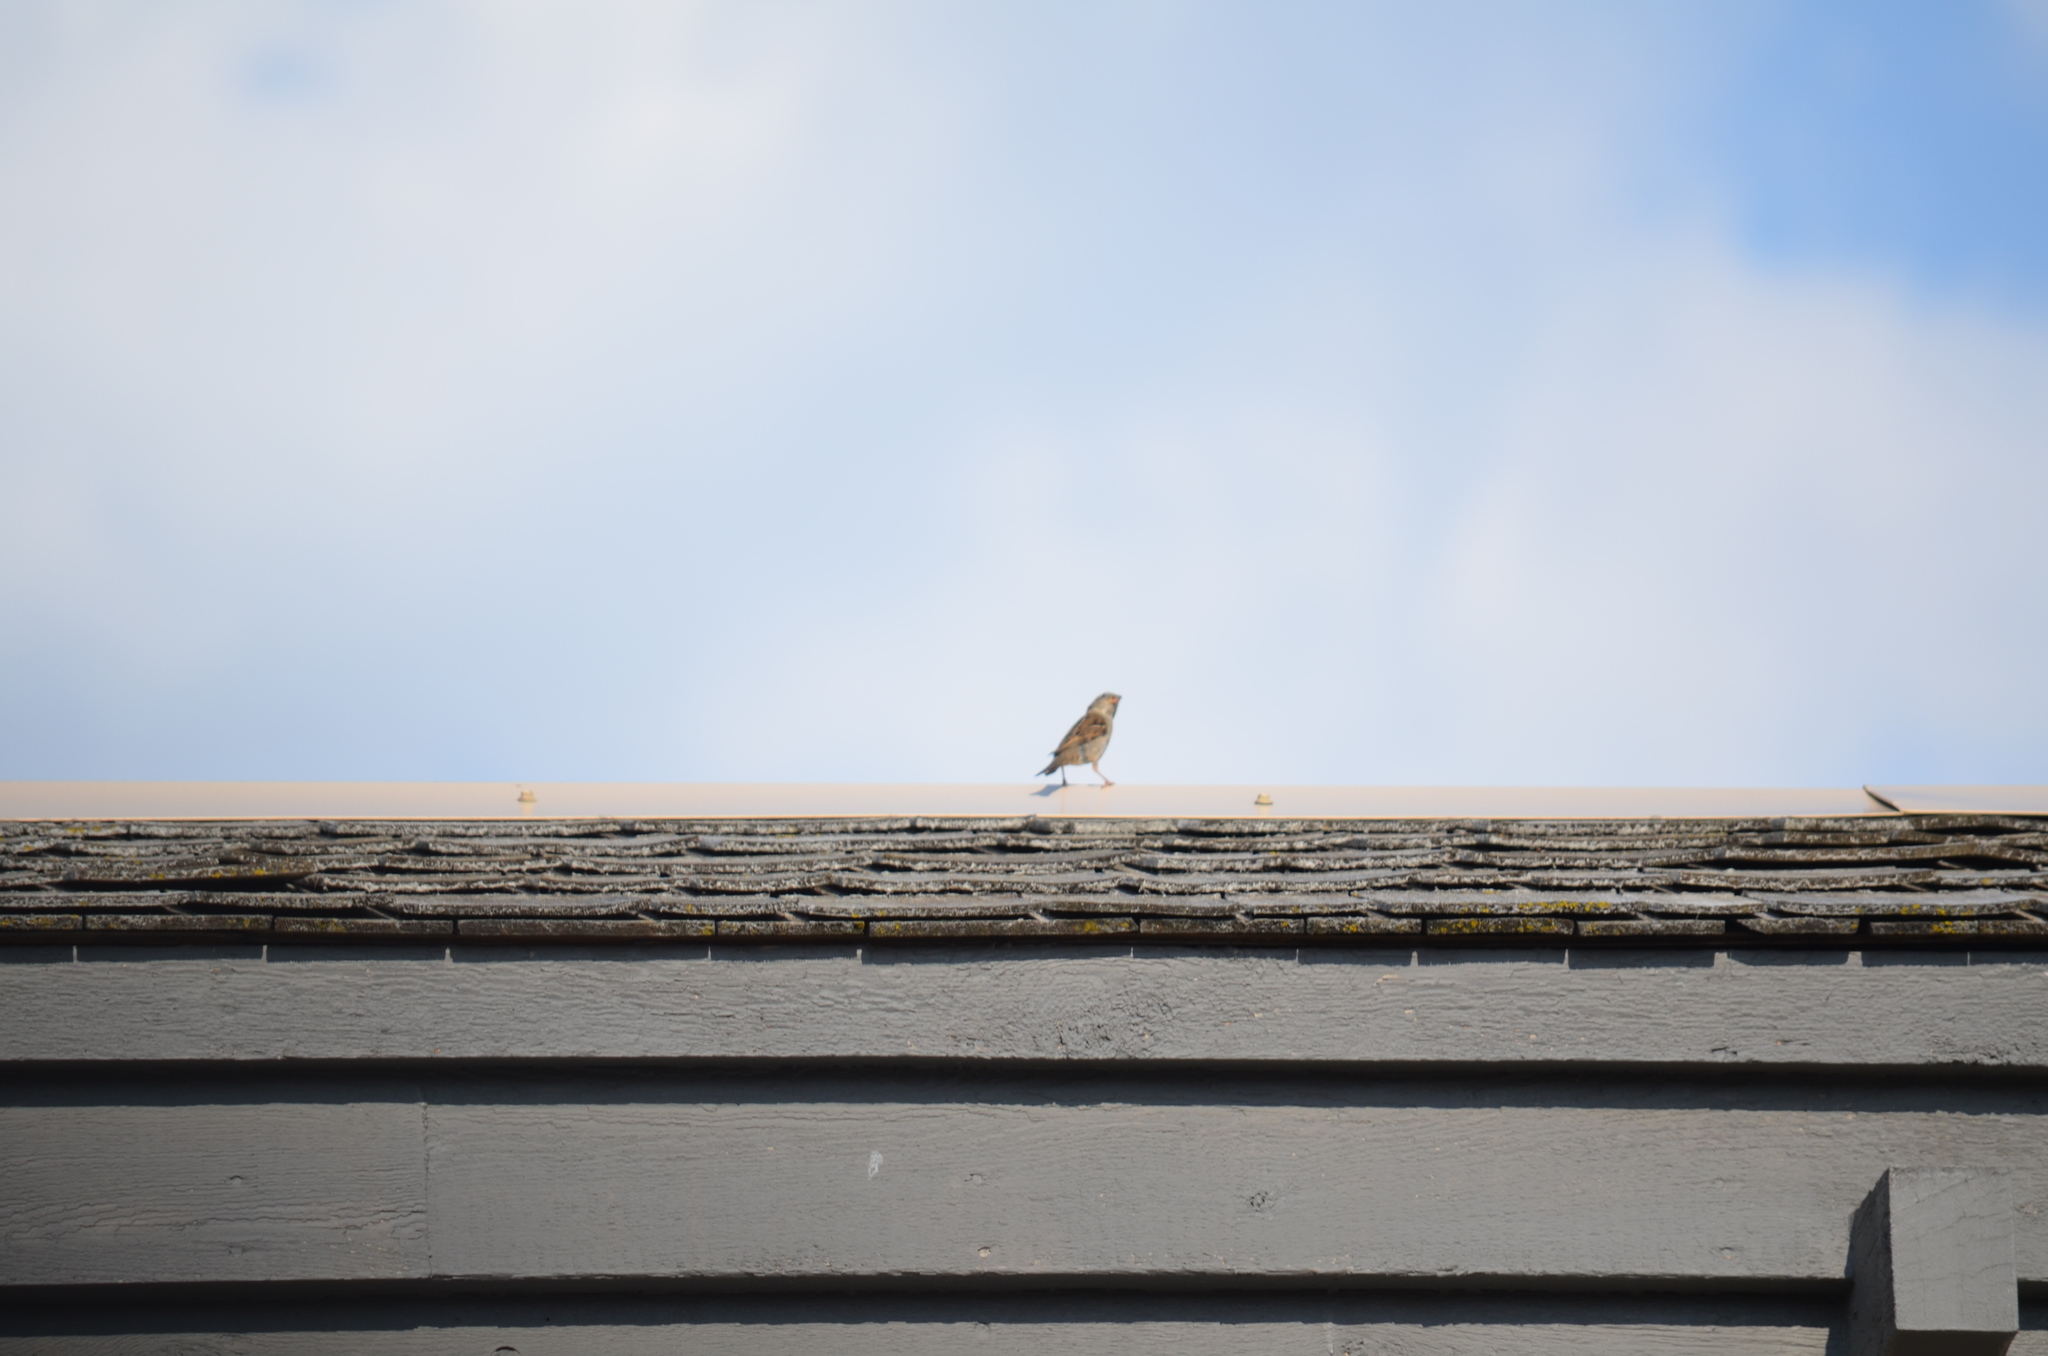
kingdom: Animalia
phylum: Chordata
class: Aves
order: Passeriformes
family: Passeridae
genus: Passer
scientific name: Passer domesticus
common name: House sparrow
